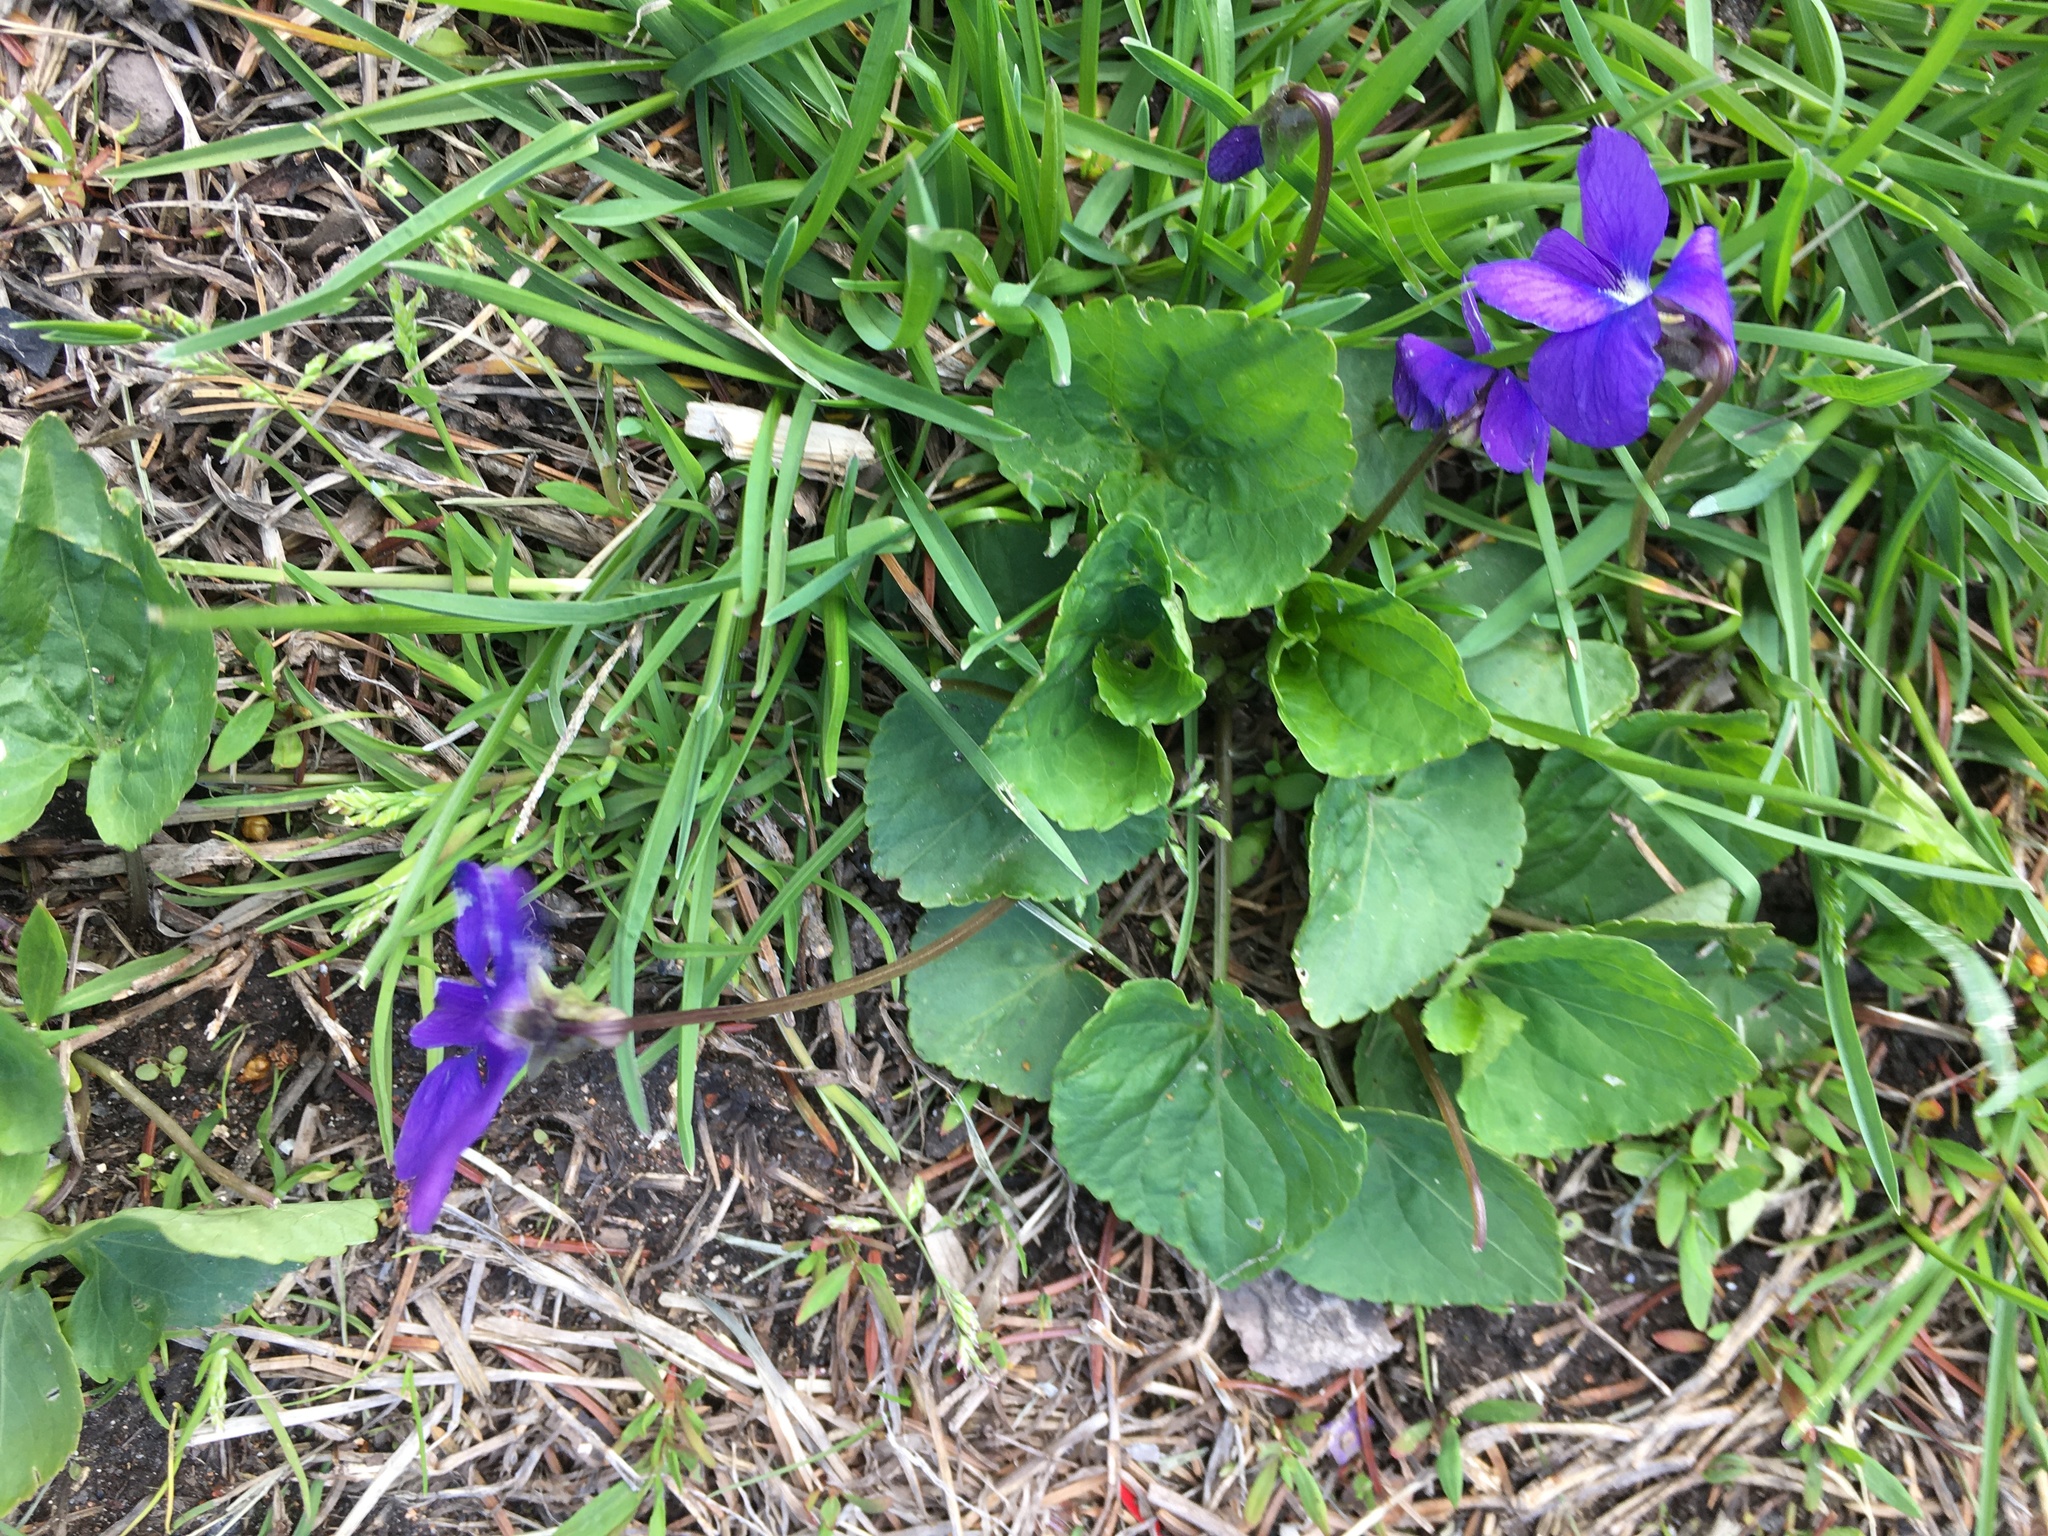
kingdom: Plantae
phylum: Tracheophyta
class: Magnoliopsida
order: Malpighiales
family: Violaceae
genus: Viola
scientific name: Viola sororia
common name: Dooryard violet
